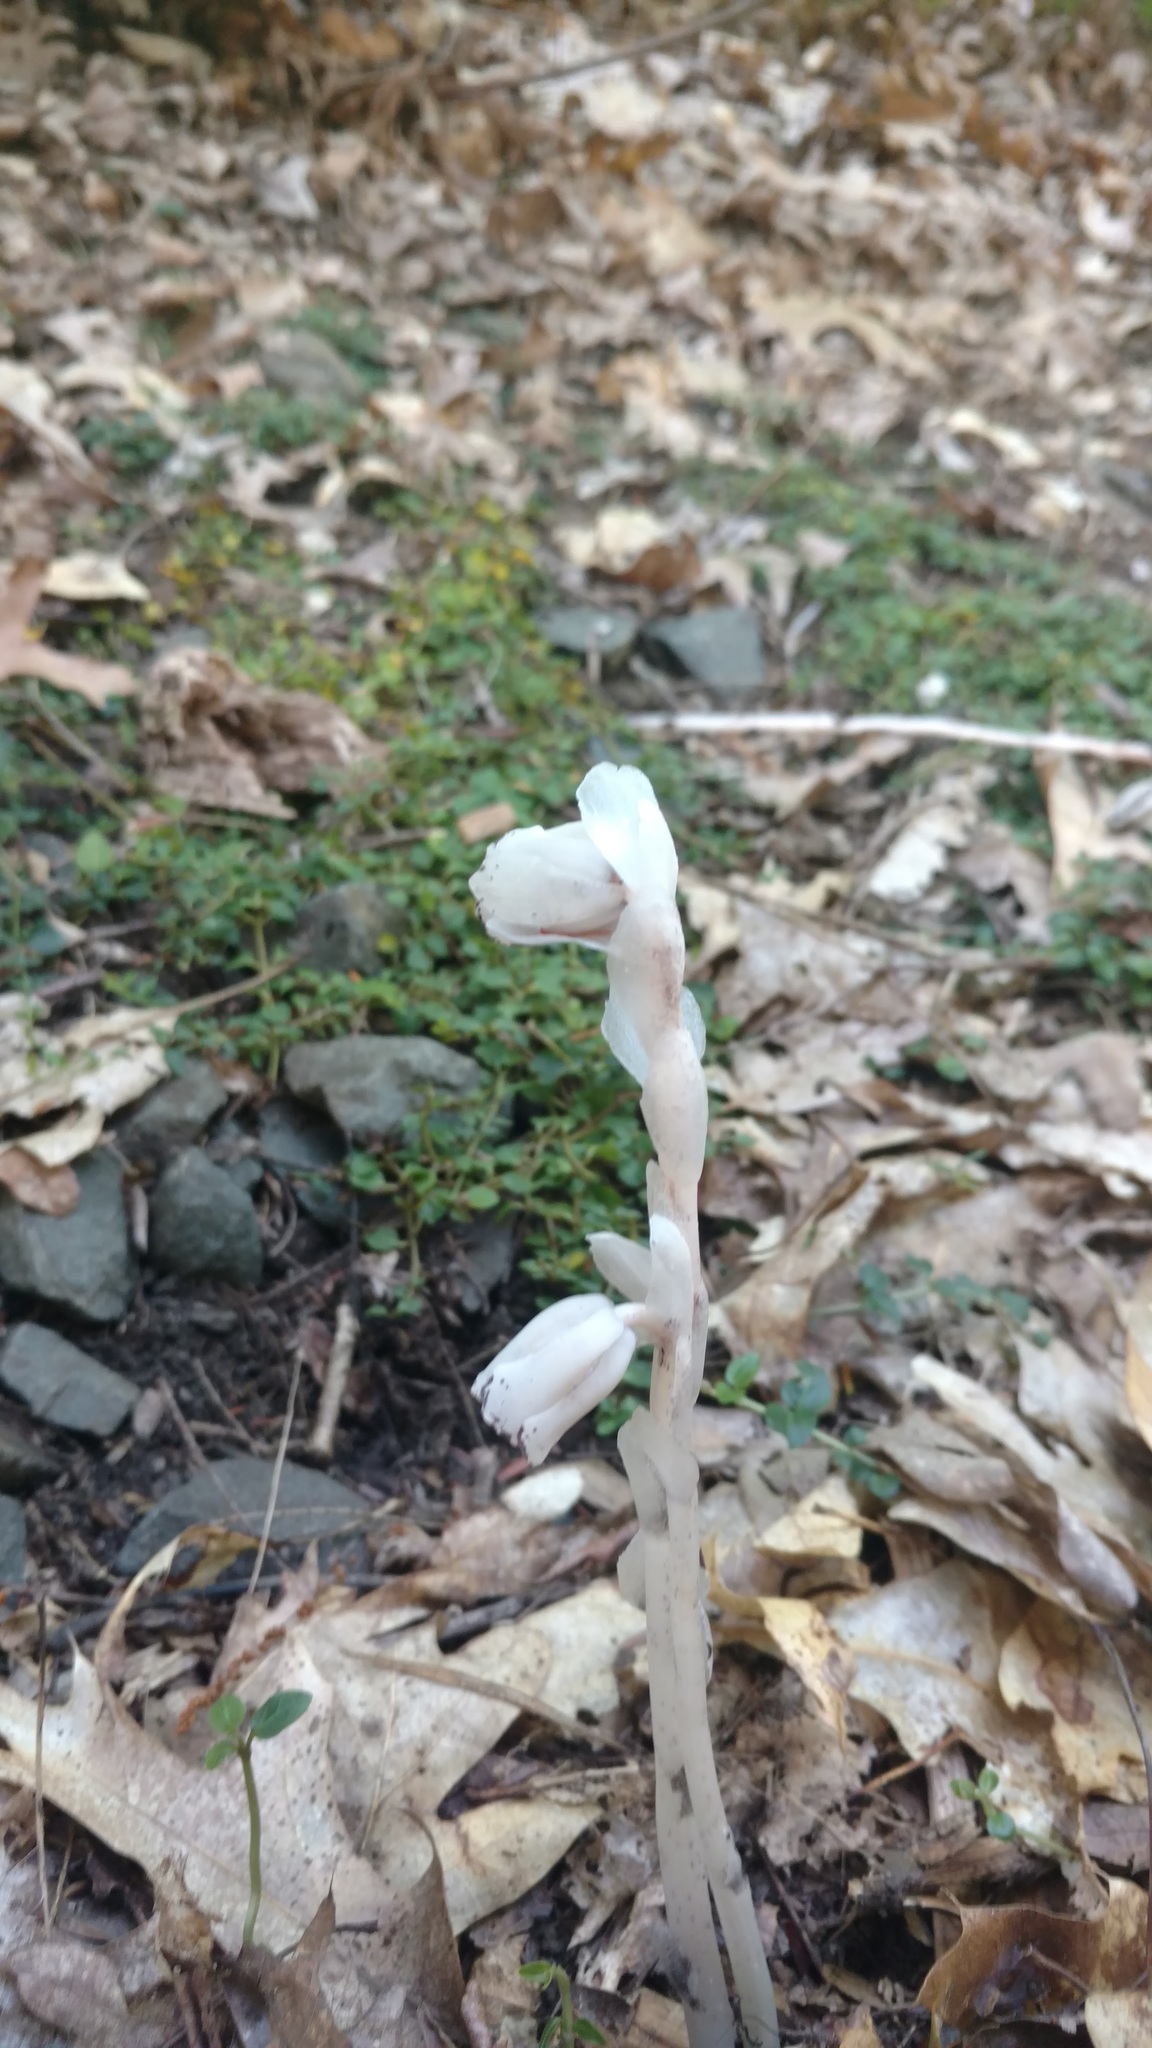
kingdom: Plantae
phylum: Tracheophyta
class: Magnoliopsida
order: Ericales
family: Ericaceae
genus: Monotropa
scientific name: Monotropa uniflora
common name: Convulsion root
